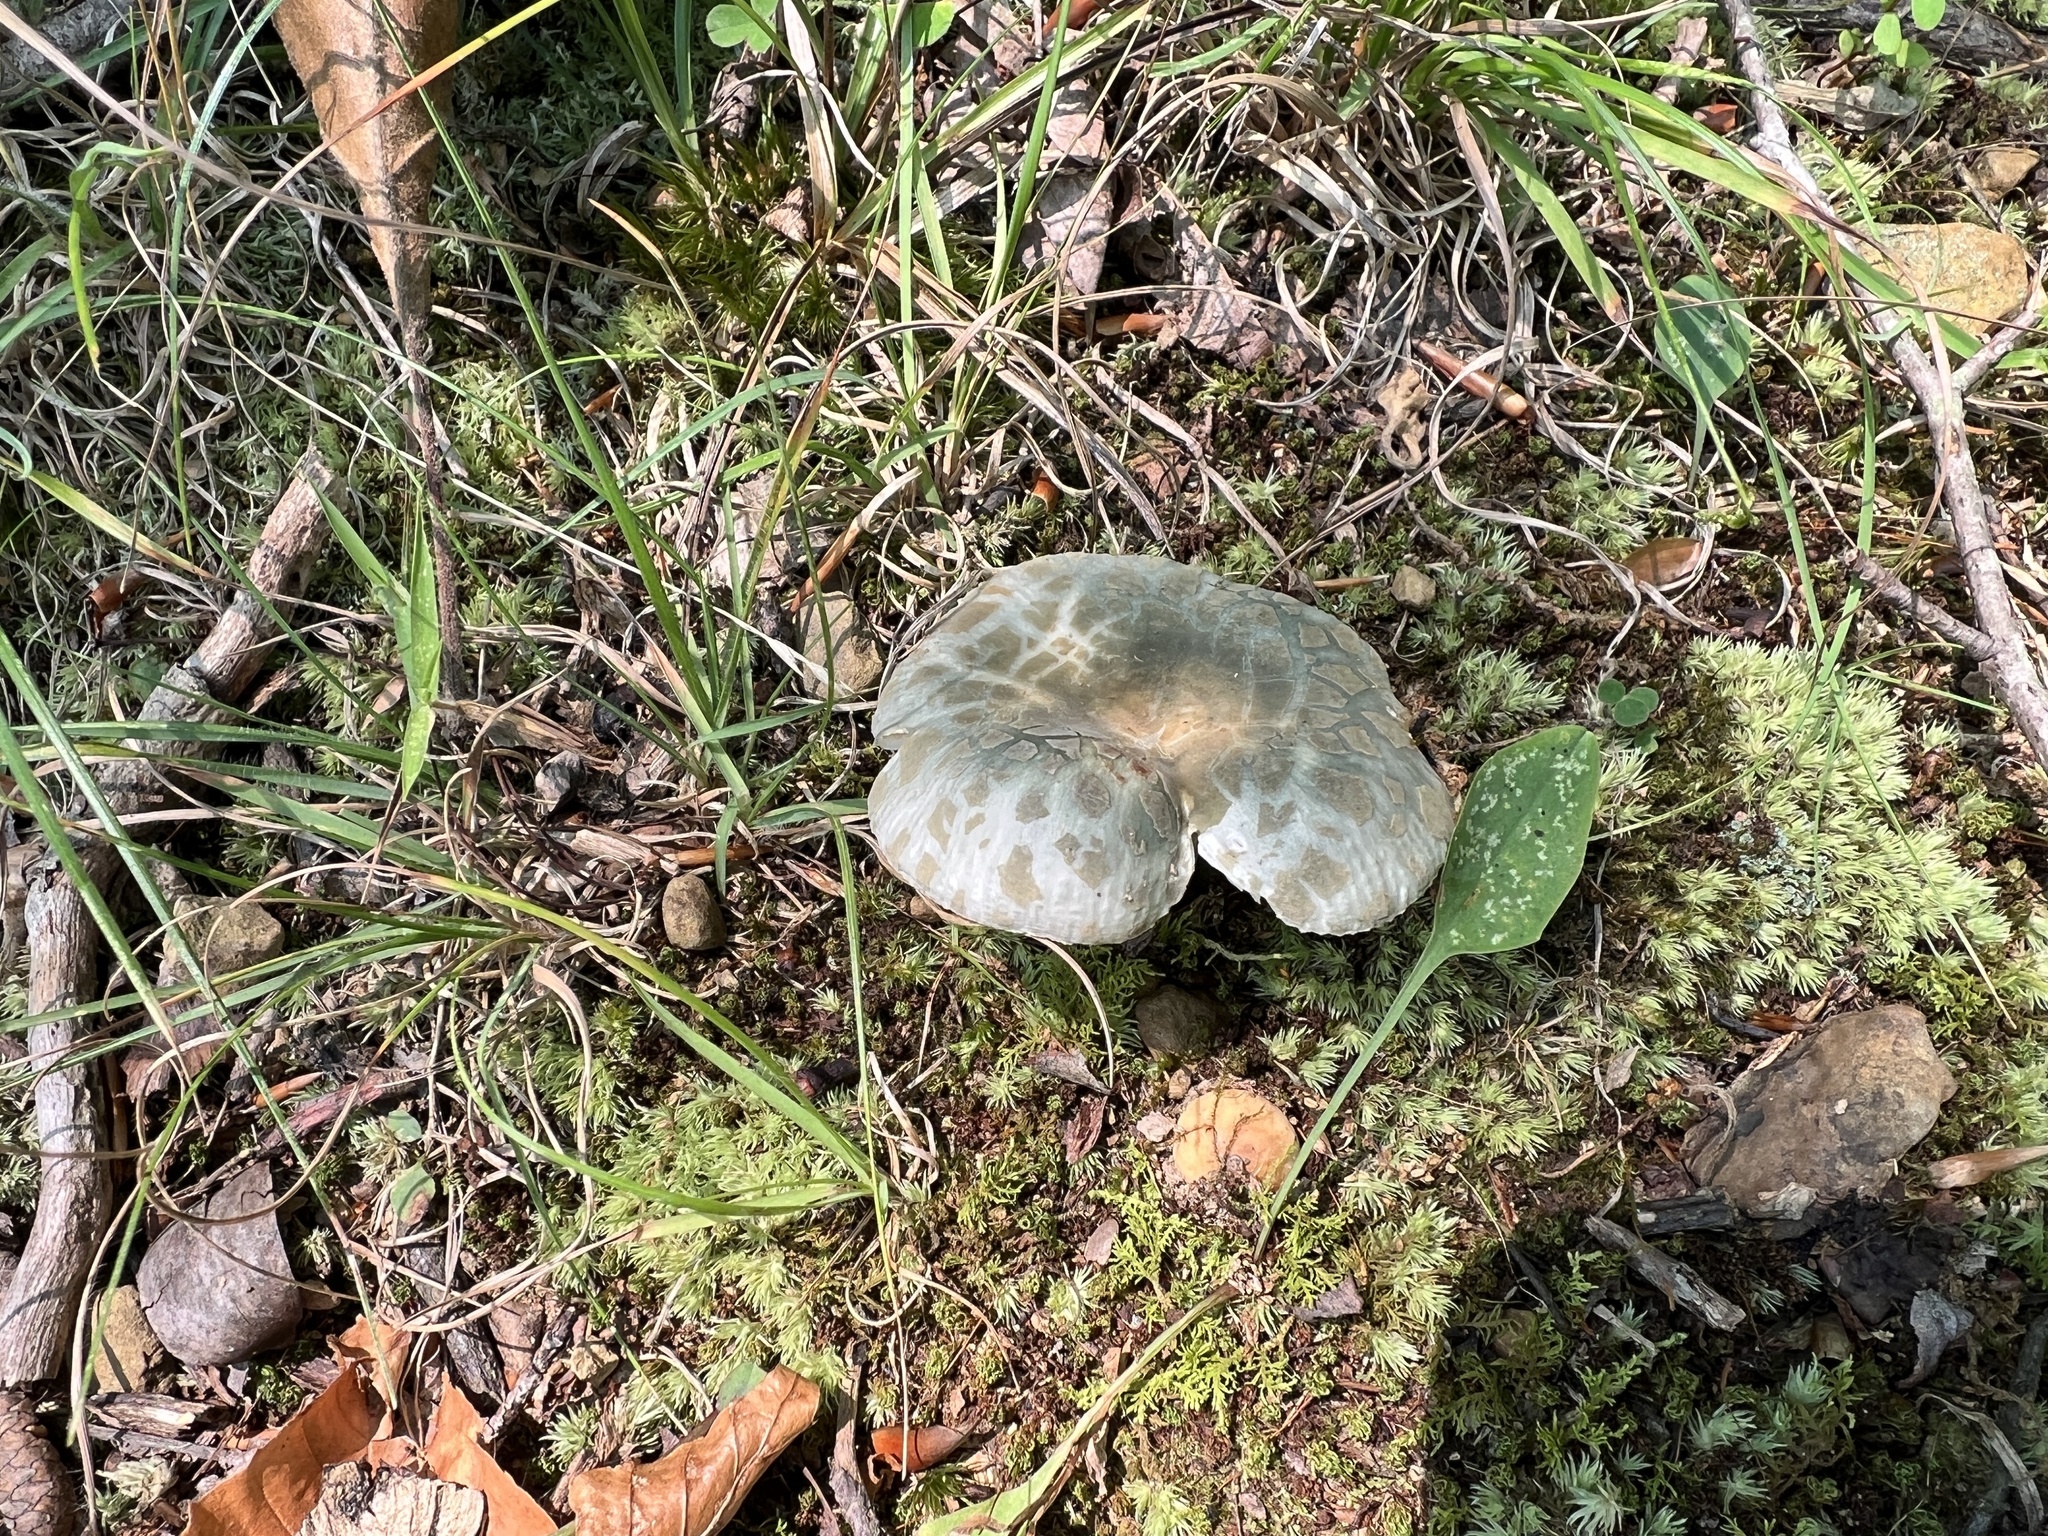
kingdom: Fungi
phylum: Basidiomycota
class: Agaricomycetes
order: Russulales
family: Russulaceae
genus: Russula
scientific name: Russula parvovirescens
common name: Blue-green cracking russula
